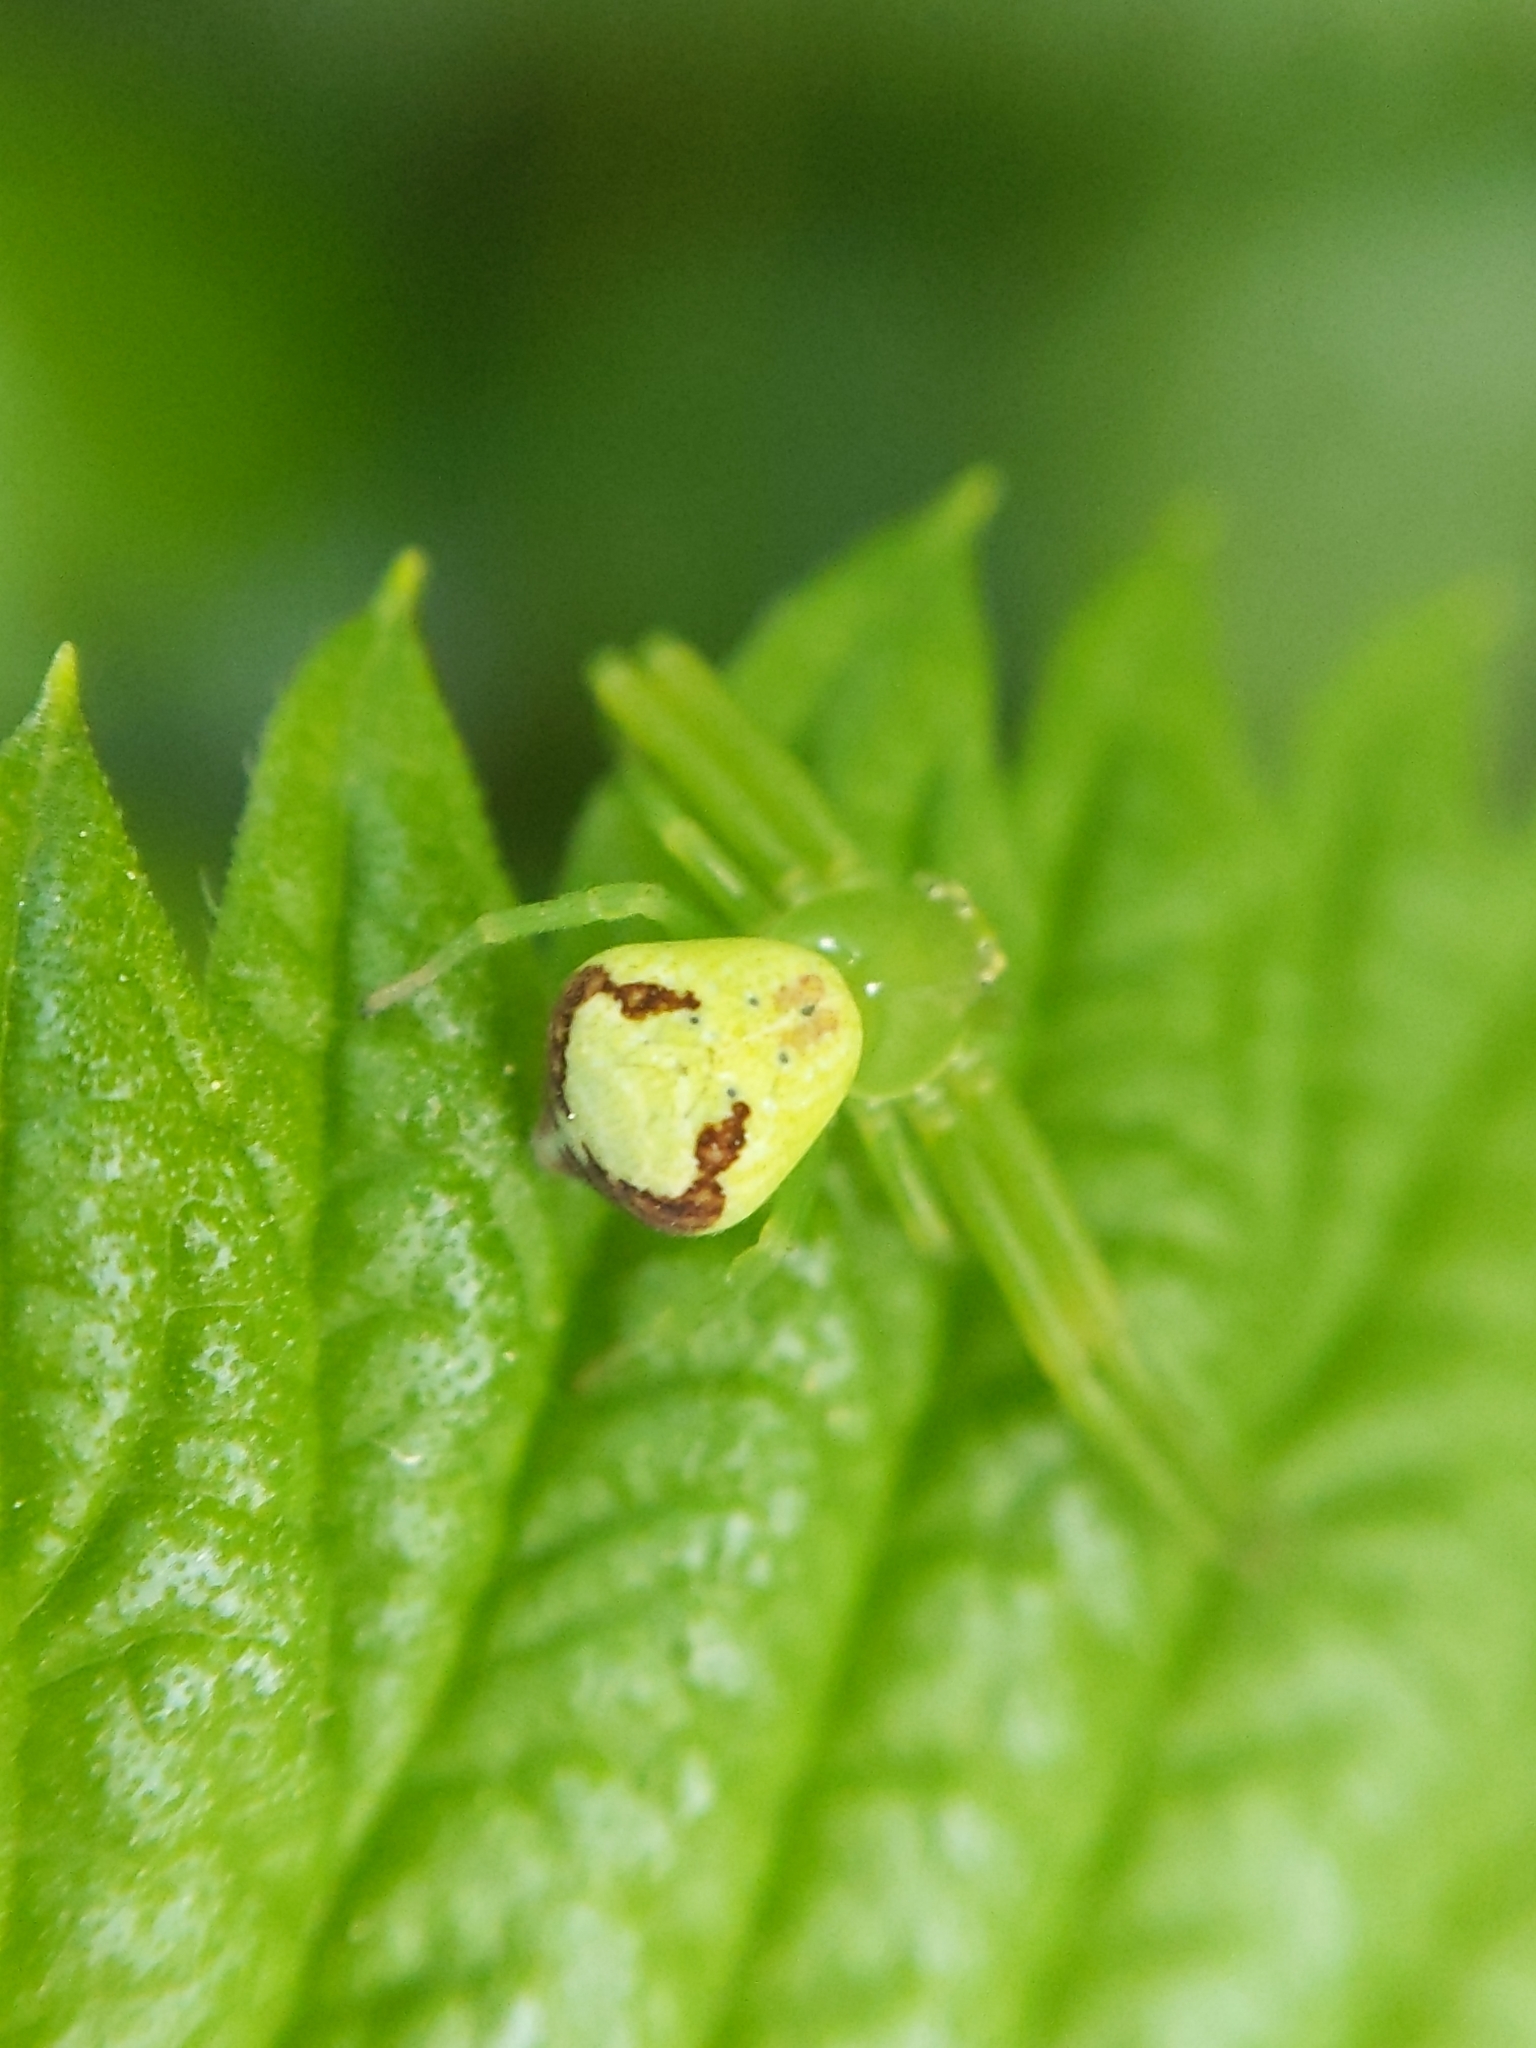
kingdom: Animalia
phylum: Arthropoda
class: Arachnida
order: Araneae
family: Thomisidae
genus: Ebrechtella
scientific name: Ebrechtella tricuspidata
